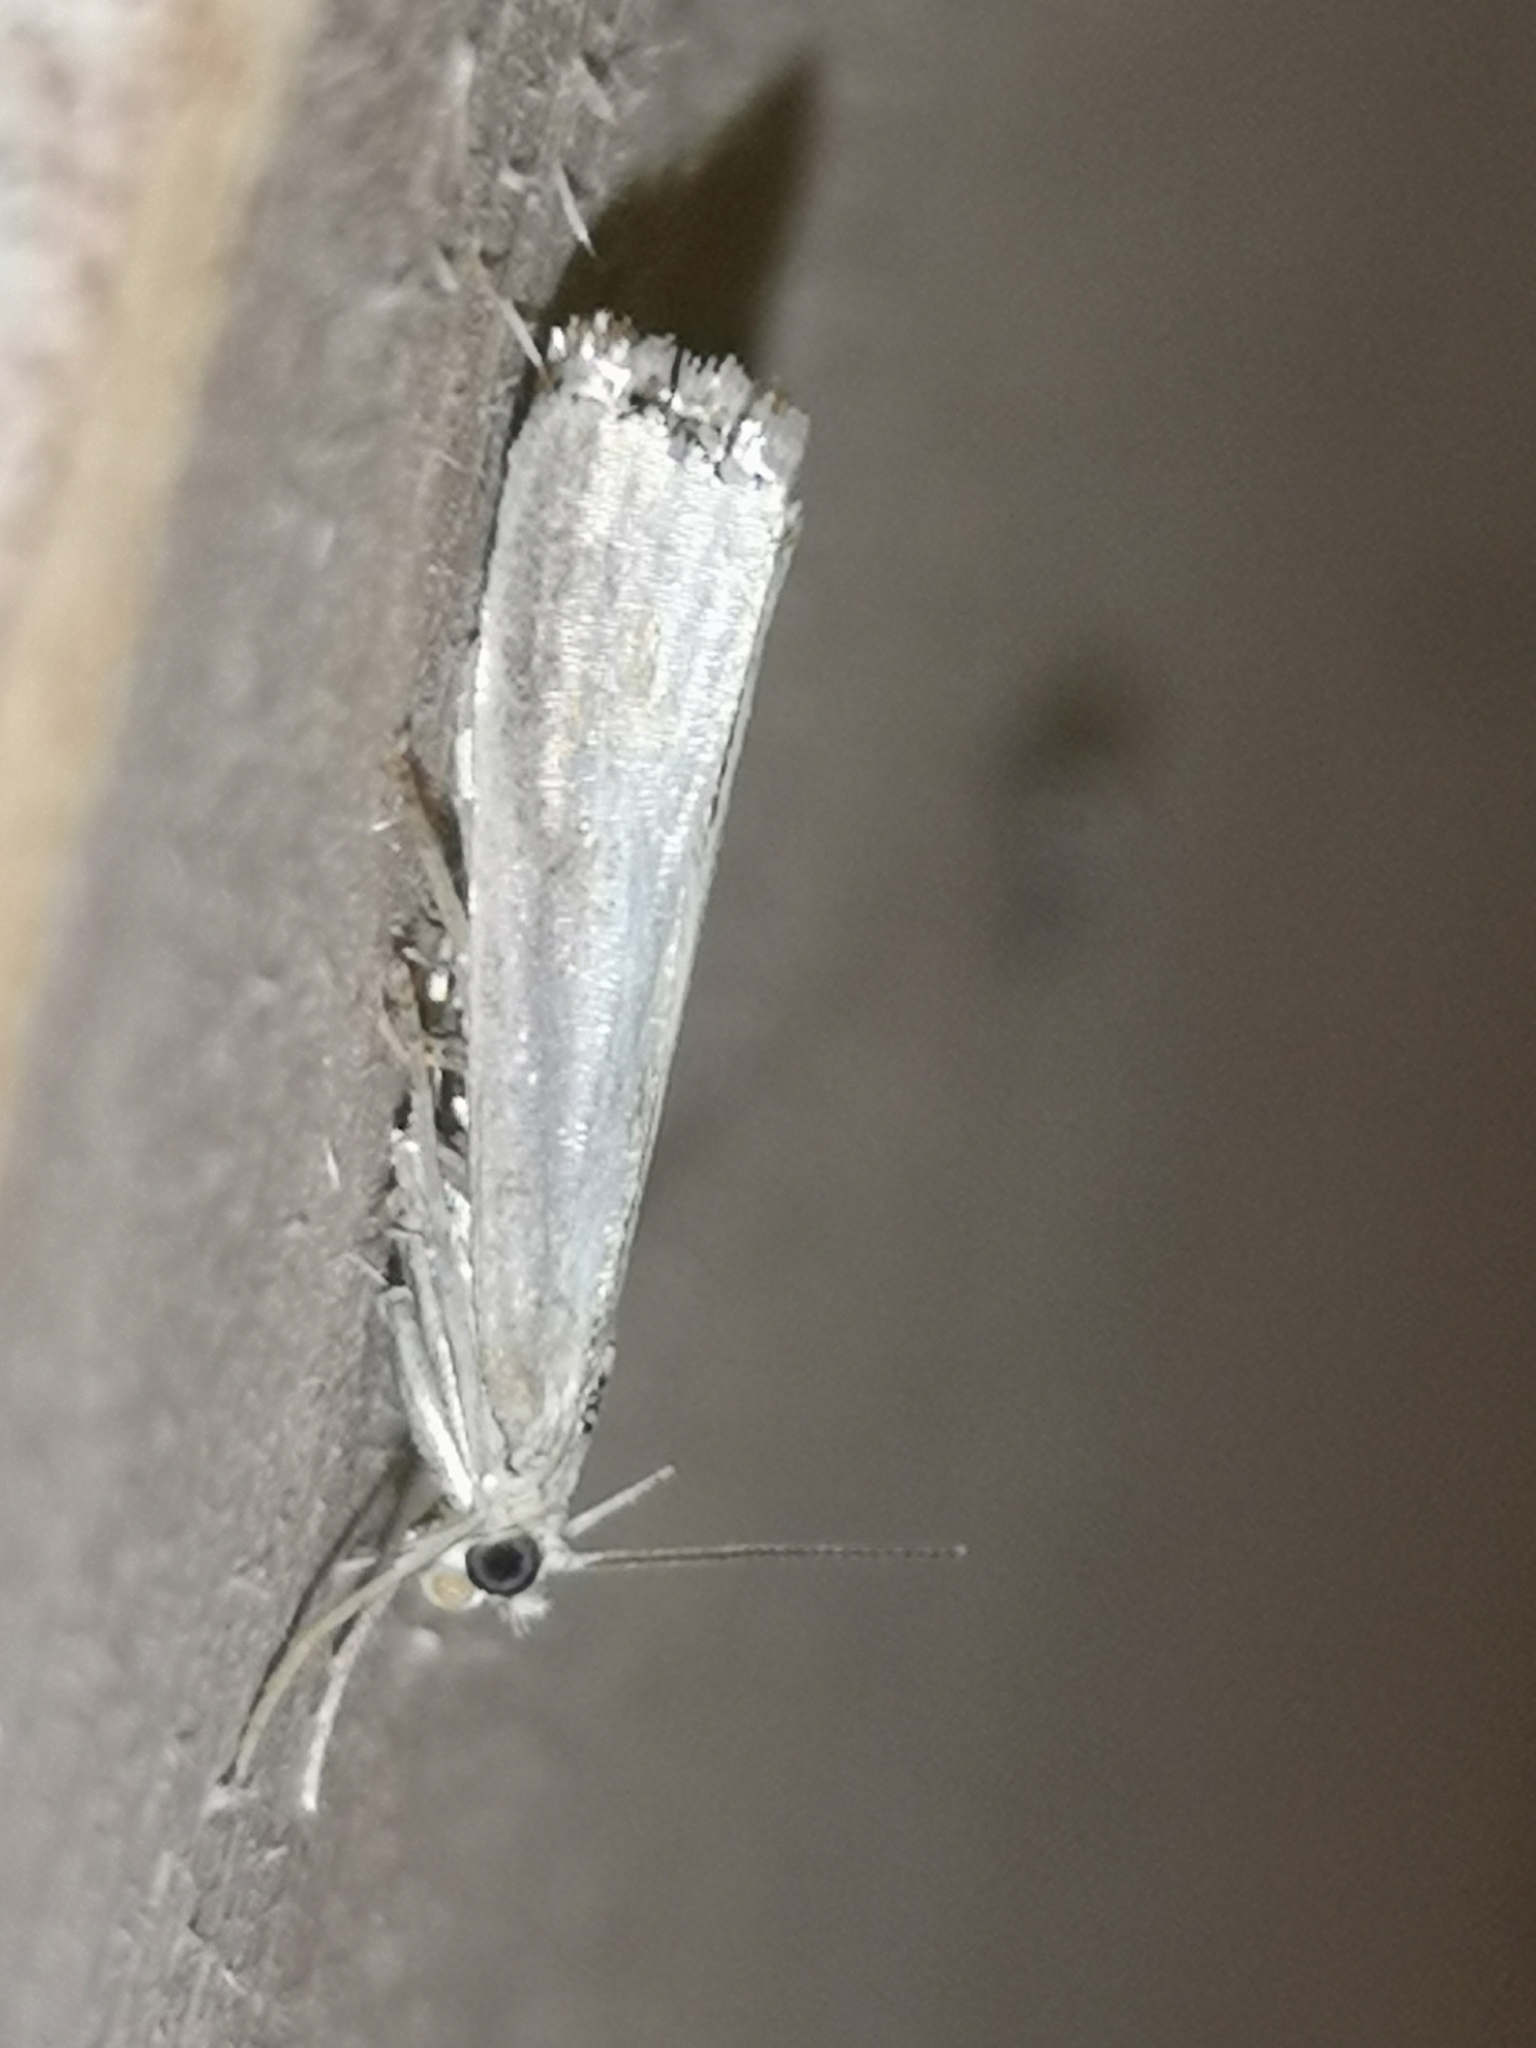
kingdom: Animalia
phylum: Arthropoda
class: Insecta
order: Lepidoptera
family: Crambidae
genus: Crambus
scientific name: Crambus perlellus
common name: Yellow satin veneer
